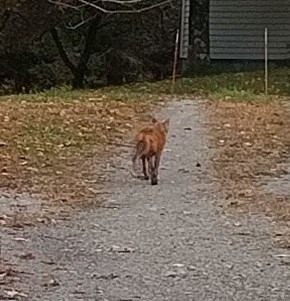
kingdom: Animalia
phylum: Chordata
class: Mammalia
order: Carnivora
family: Canidae
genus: Vulpes
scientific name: Vulpes vulpes
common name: Red fox
